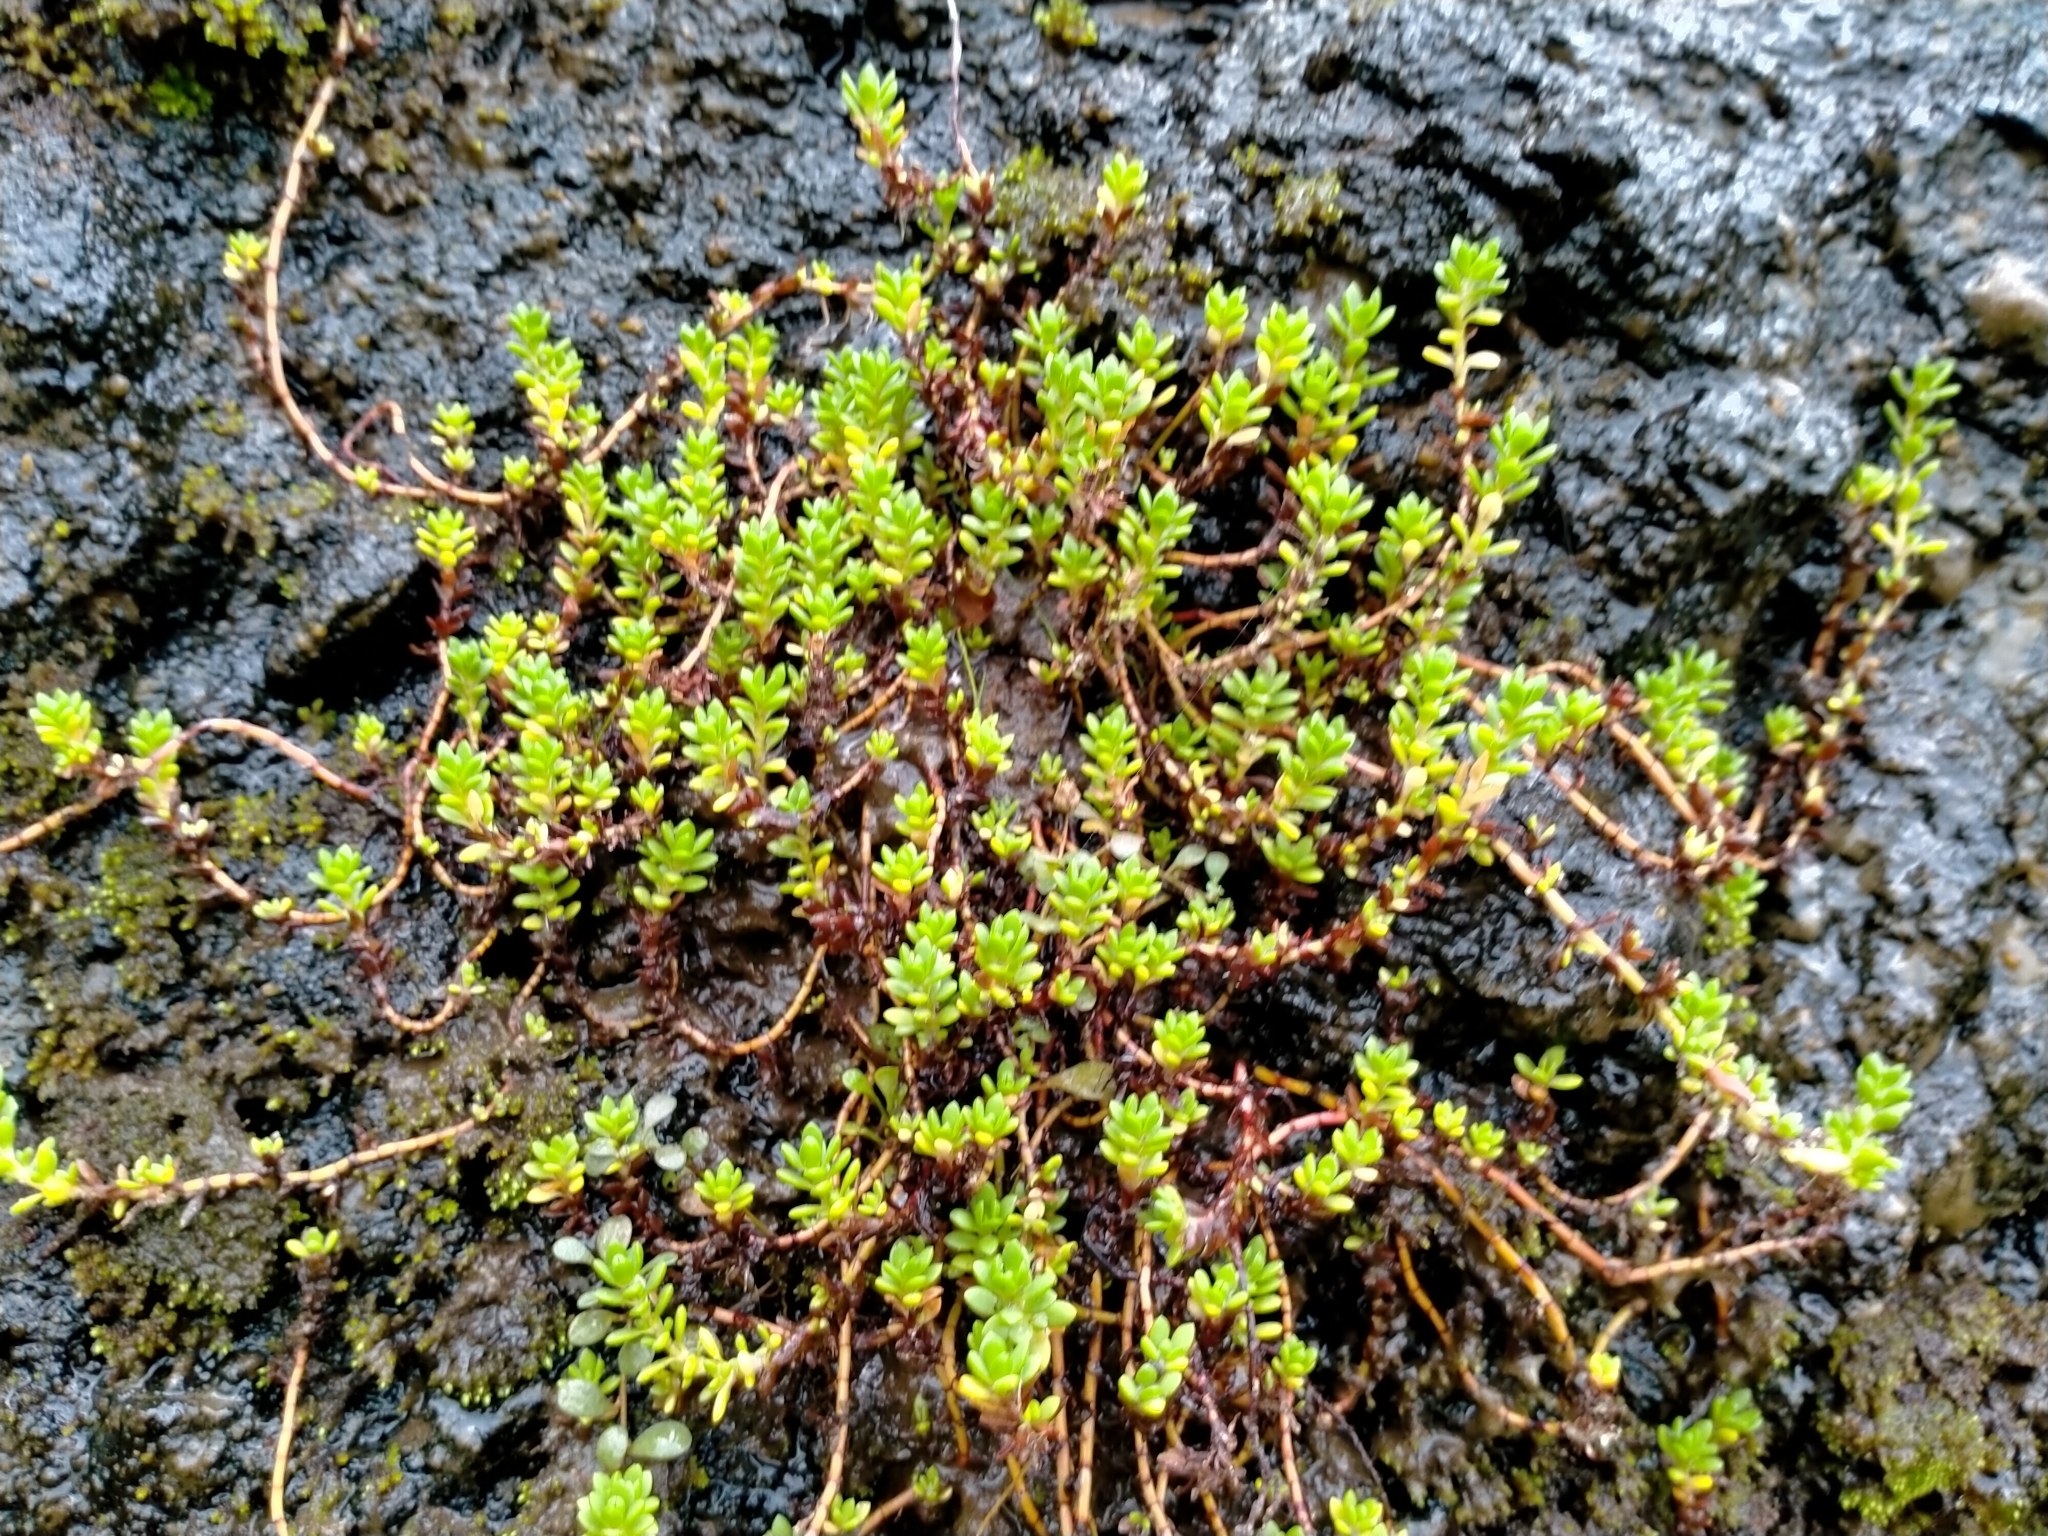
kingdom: Plantae
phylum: Tracheophyta
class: Magnoliopsida
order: Saxifragales
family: Crassulaceae
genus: Crassula
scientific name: Crassula moschata
